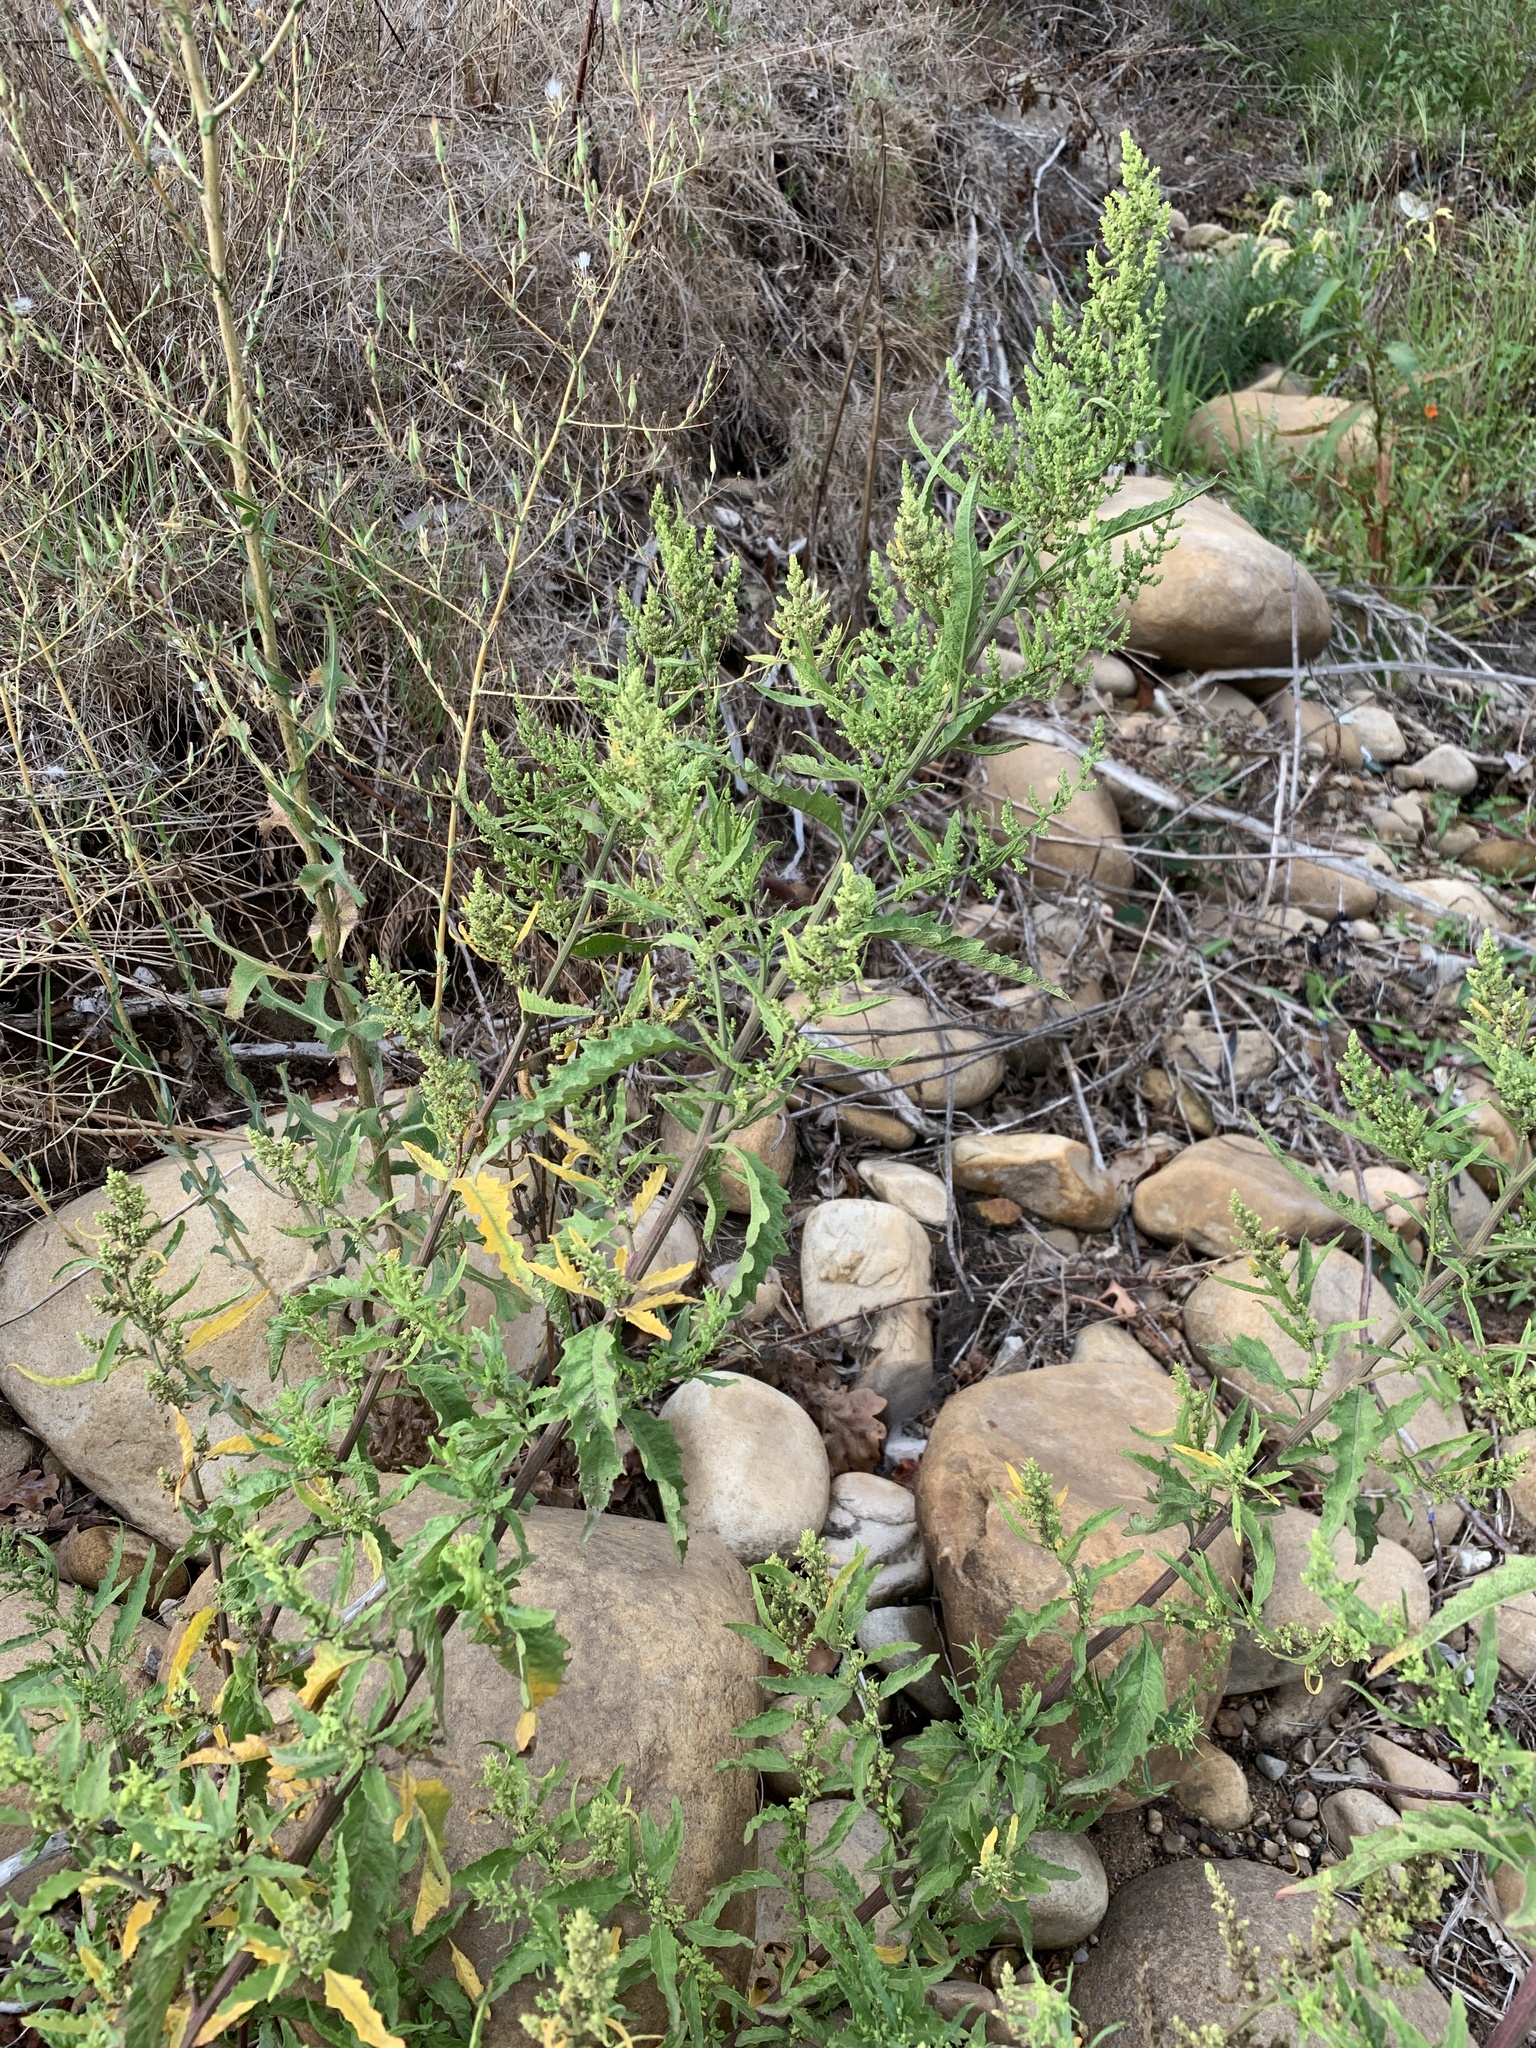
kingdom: Plantae
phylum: Tracheophyta
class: Magnoliopsida
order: Caryophyllales
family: Amaranthaceae
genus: Dysphania
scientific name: Dysphania ambrosioides
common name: Wormseed
